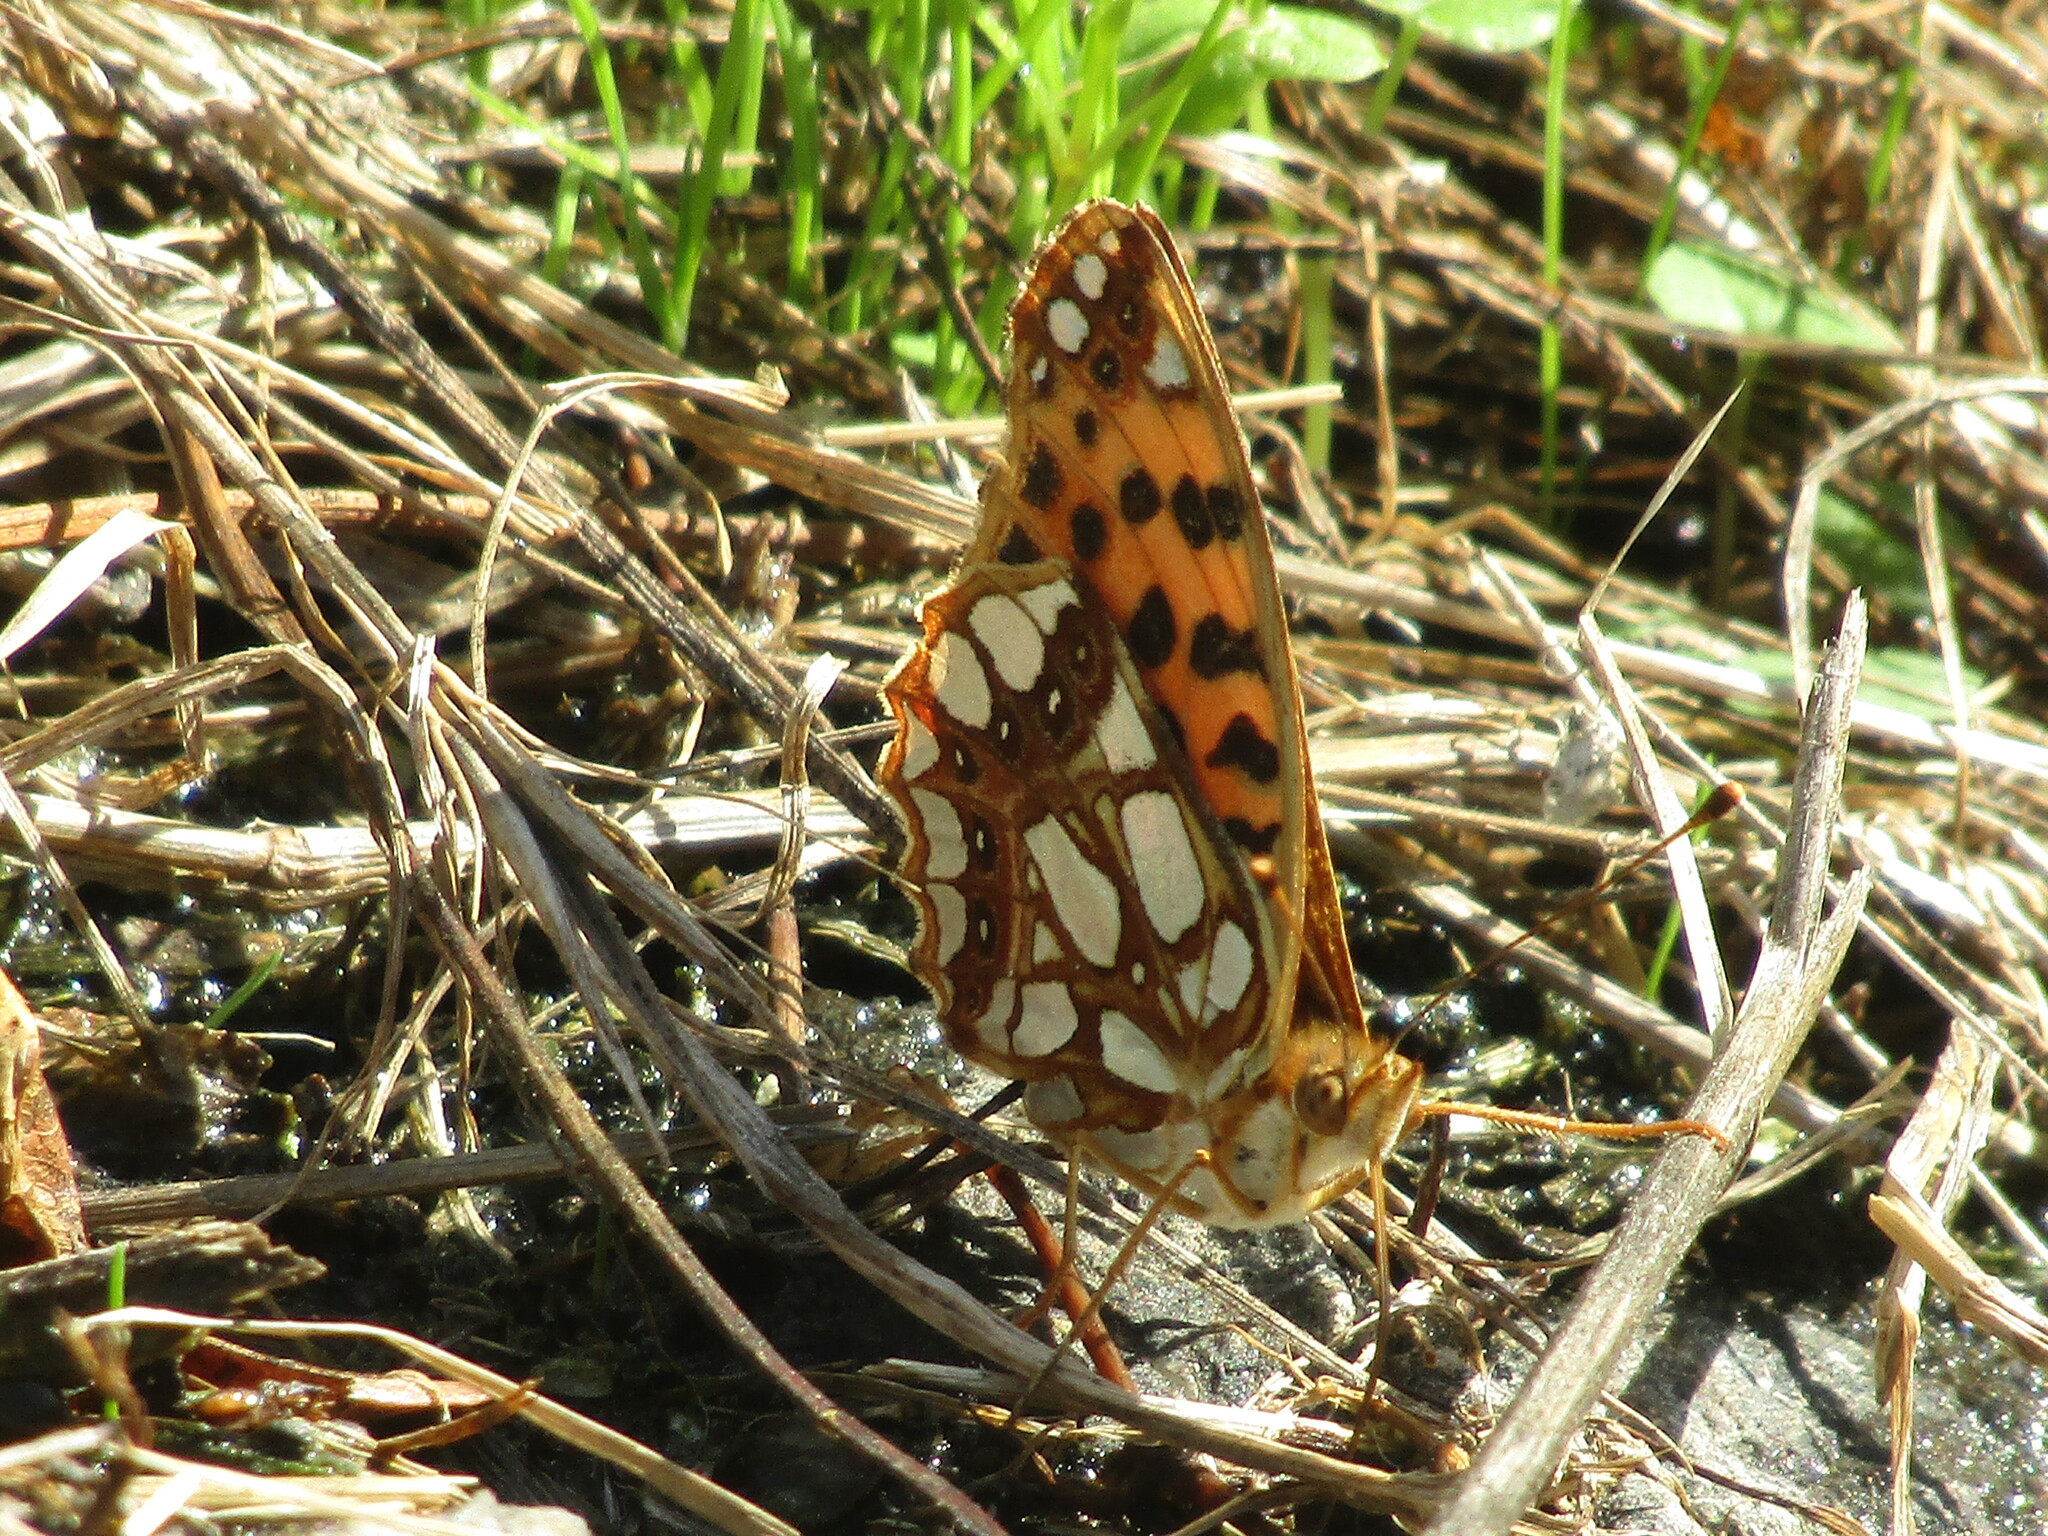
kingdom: Animalia
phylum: Arthropoda
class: Insecta
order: Lepidoptera
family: Nymphalidae
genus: Issoria
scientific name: Issoria lathonia
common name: Queen of spain fritillary
